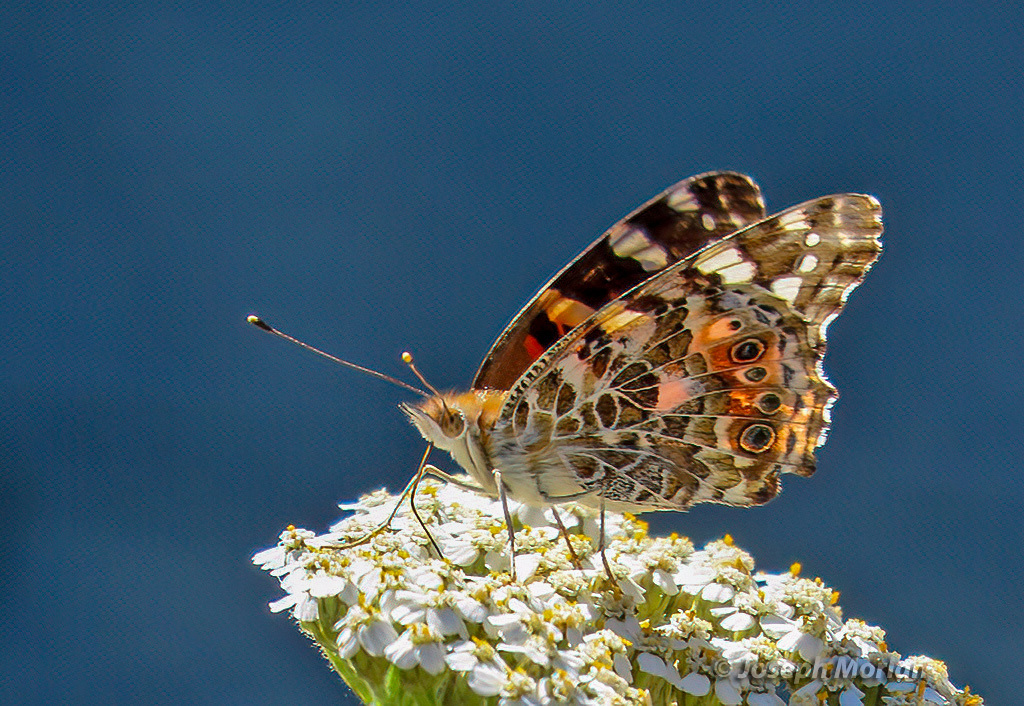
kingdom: Animalia
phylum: Arthropoda
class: Insecta
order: Lepidoptera
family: Nymphalidae
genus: Vanessa
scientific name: Vanessa cardui
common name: Painted lady
